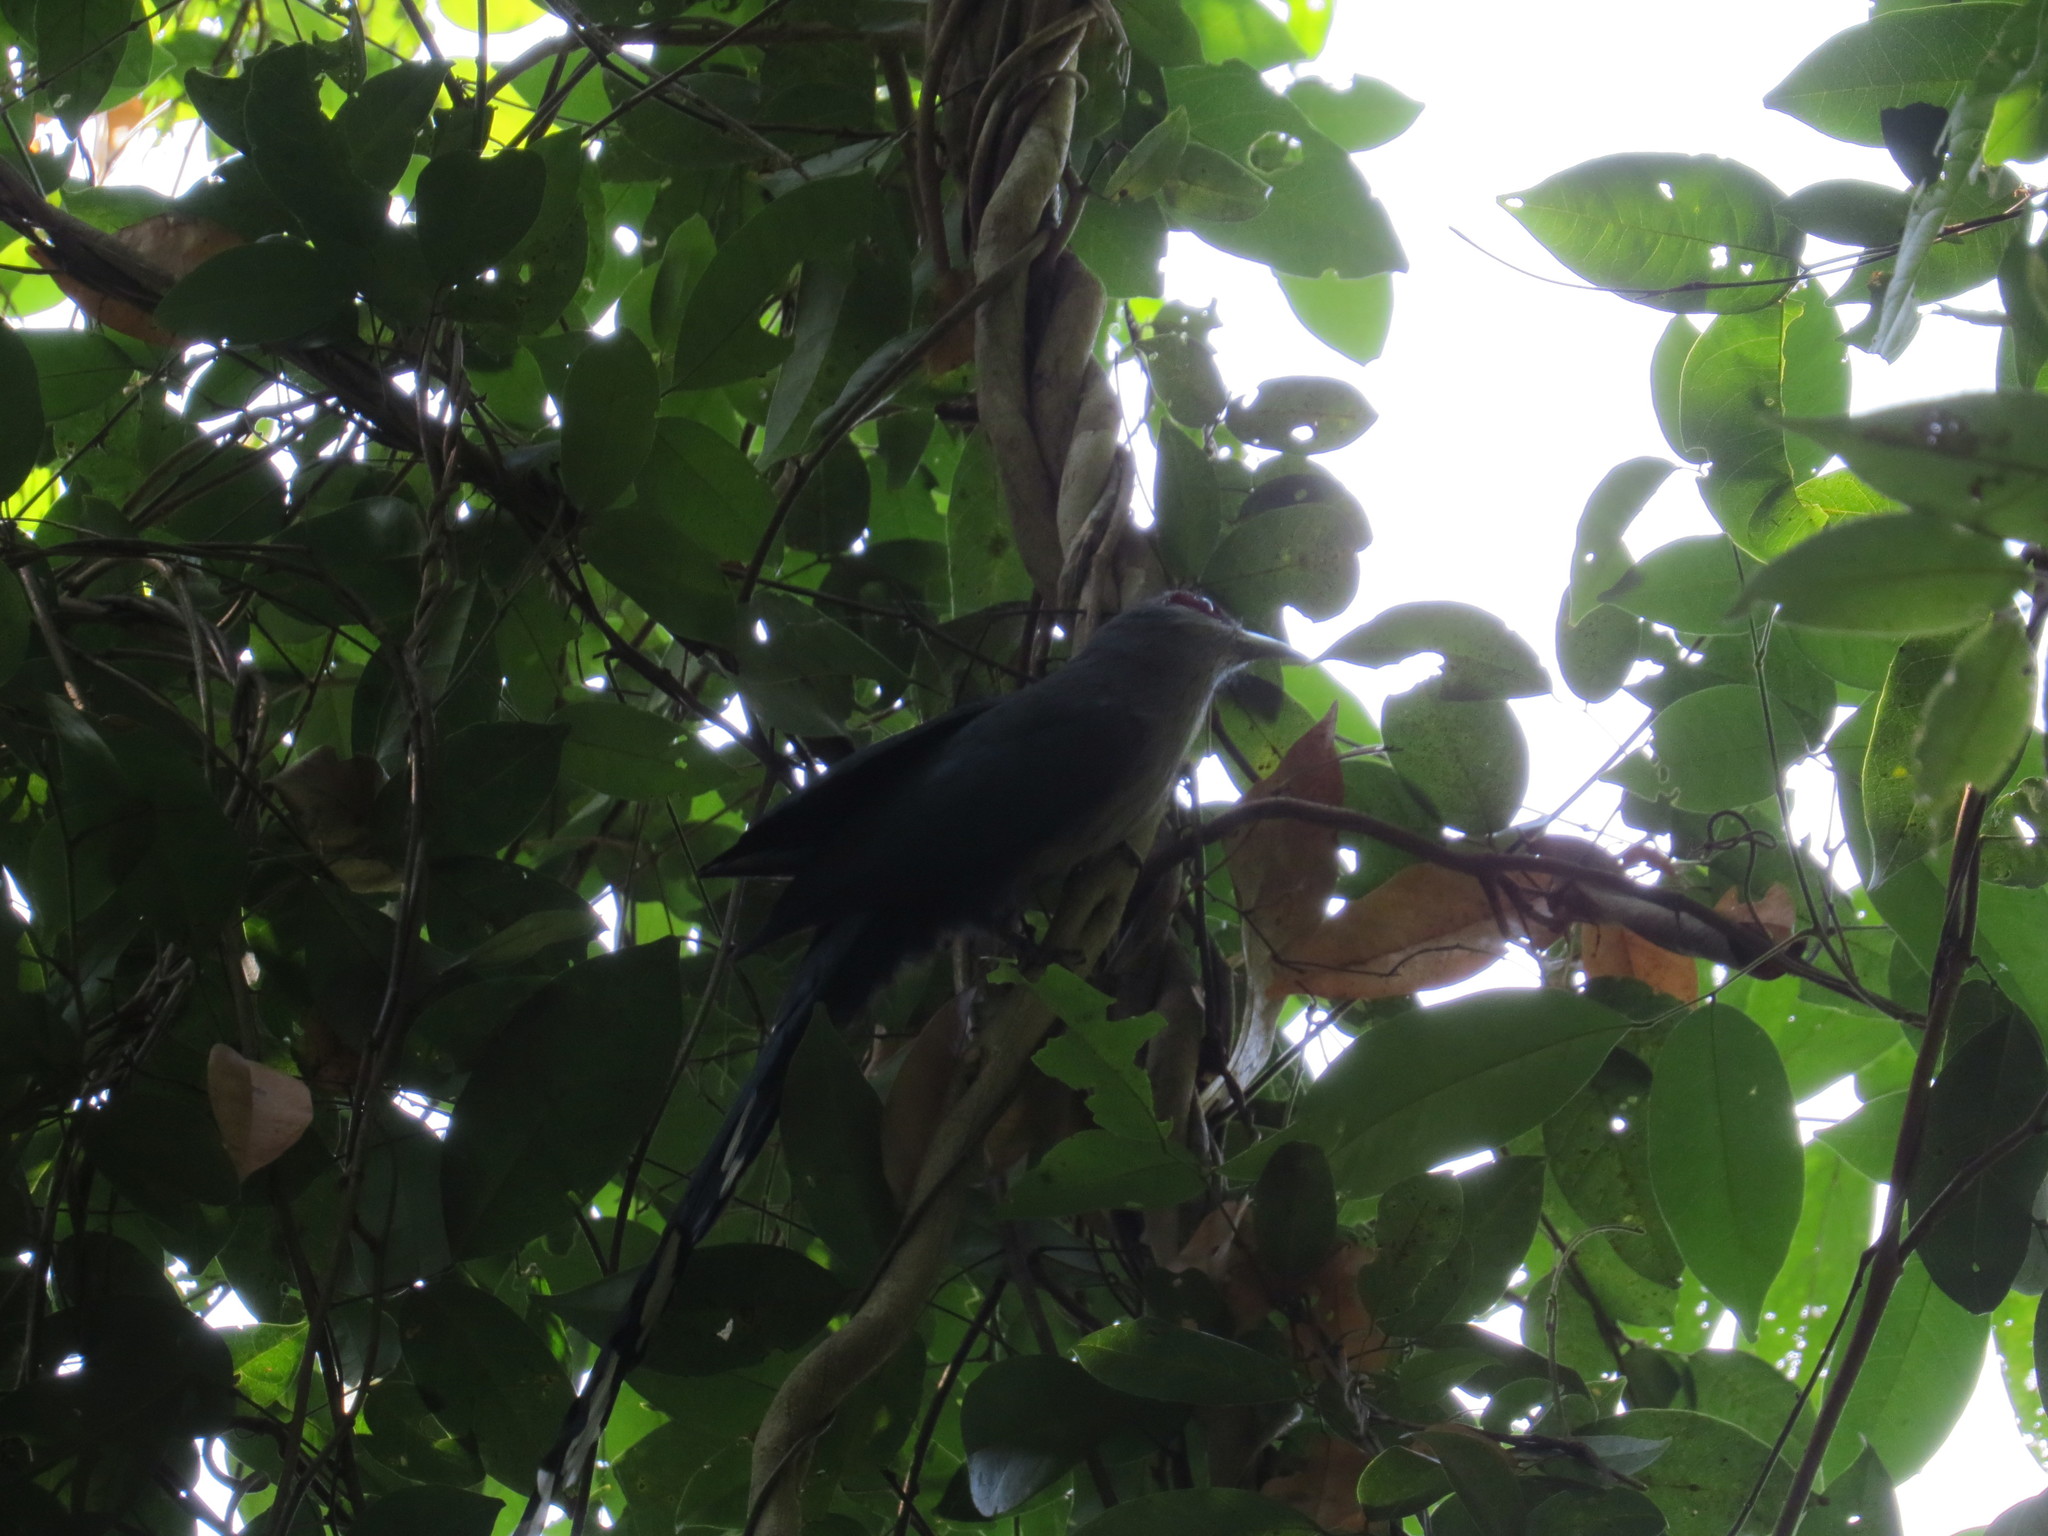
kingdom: Animalia
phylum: Chordata
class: Aves
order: Cuculiformes
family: Cuculidae
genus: Rhopodytes
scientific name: Rhopodytes tristis
